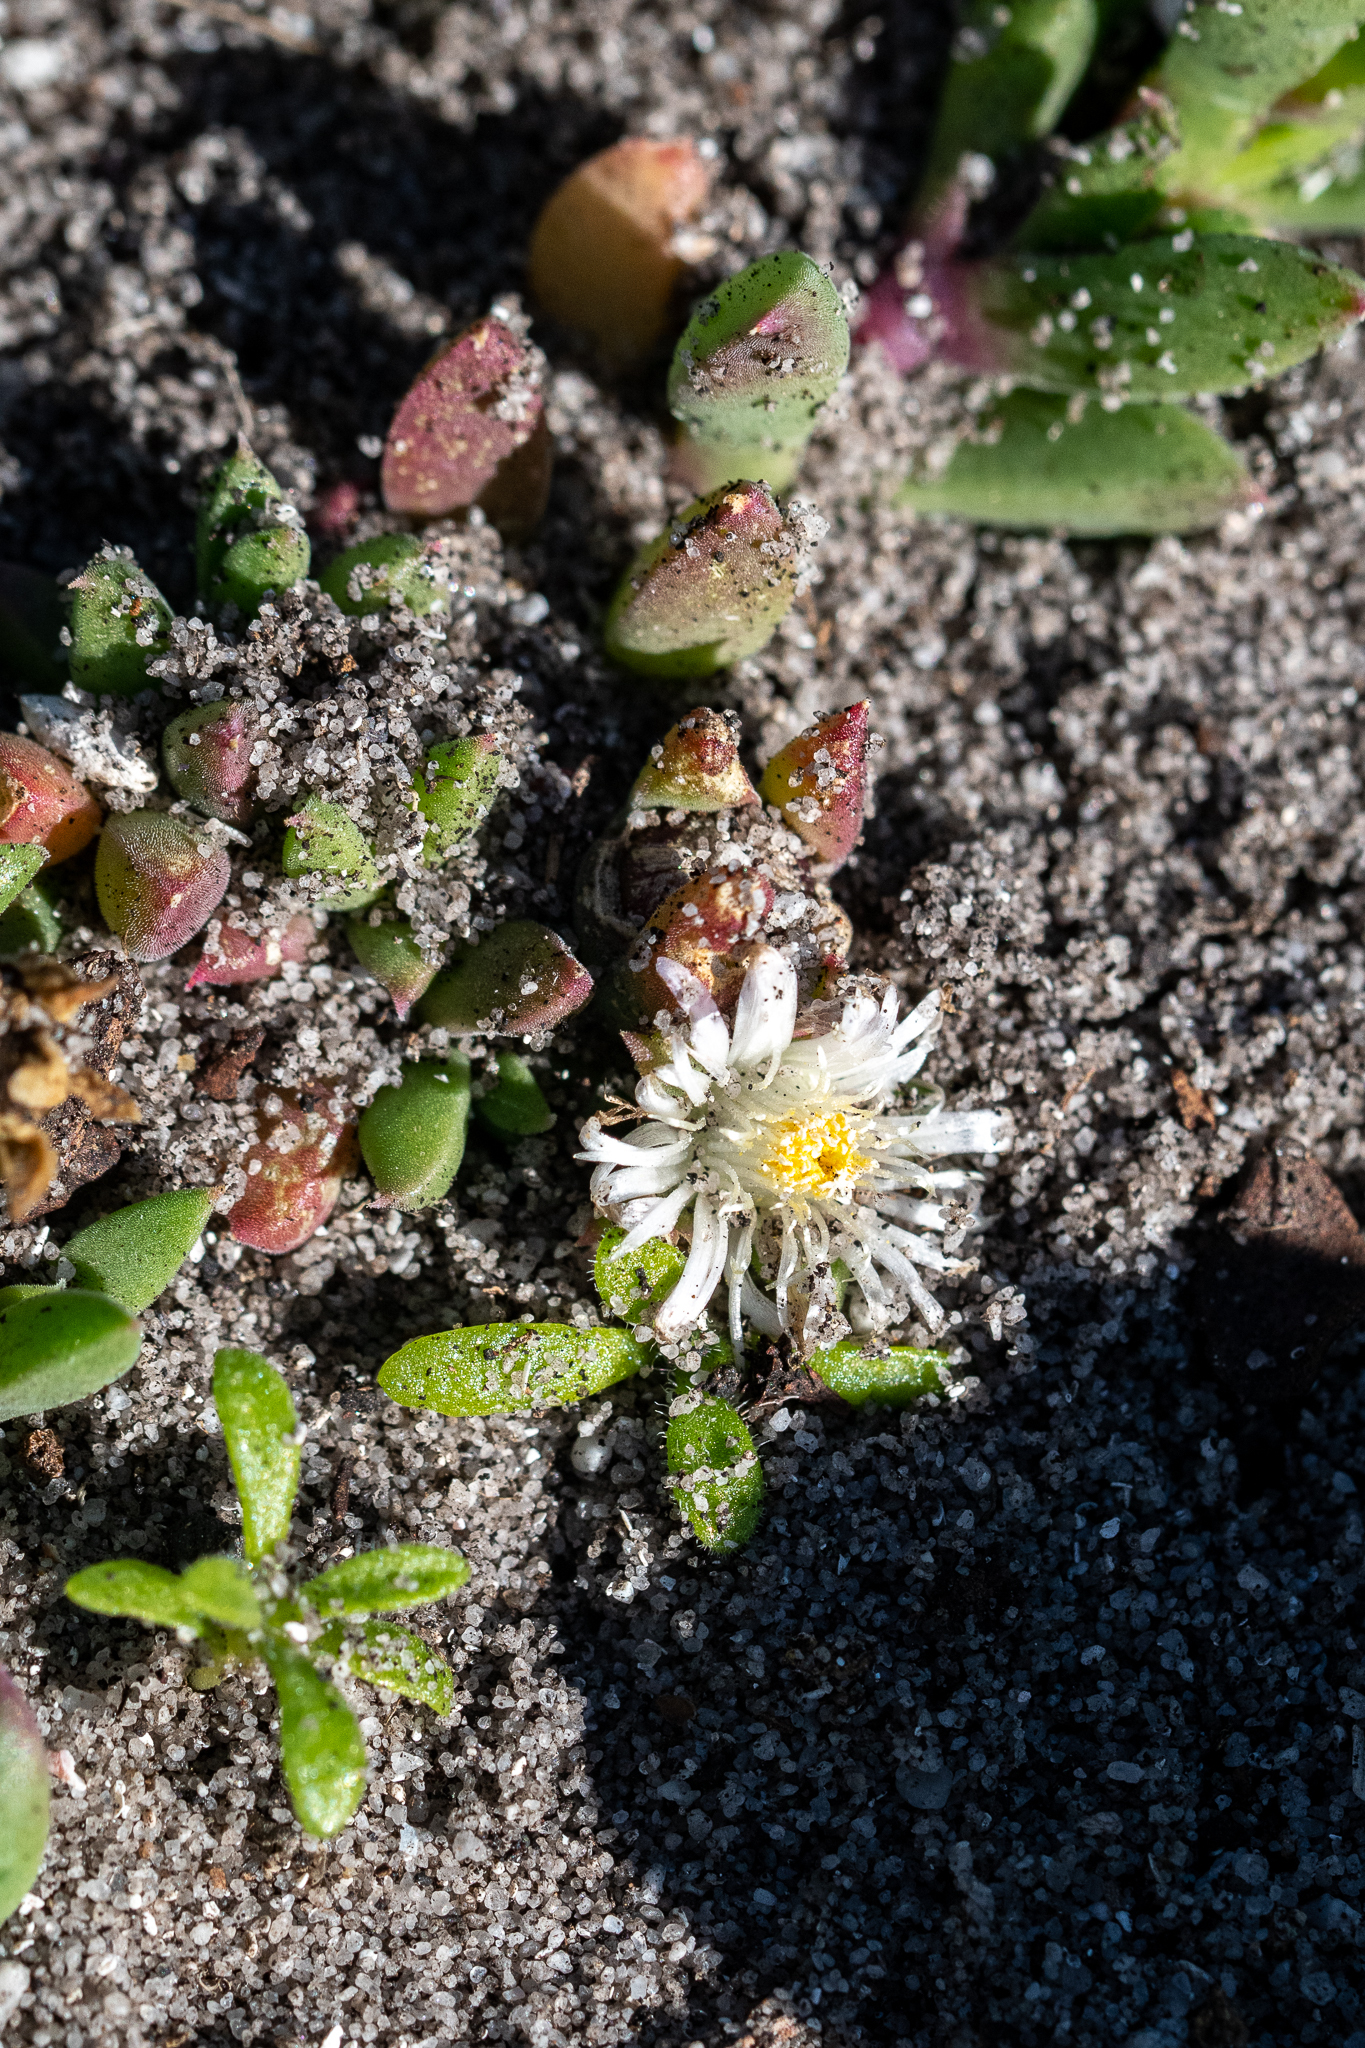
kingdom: Plantae
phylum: Tracheophyta
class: Magnoliopsida
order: Caryophyllales
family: Aizoaceae
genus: Delosperma
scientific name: Delosperma guthriei
